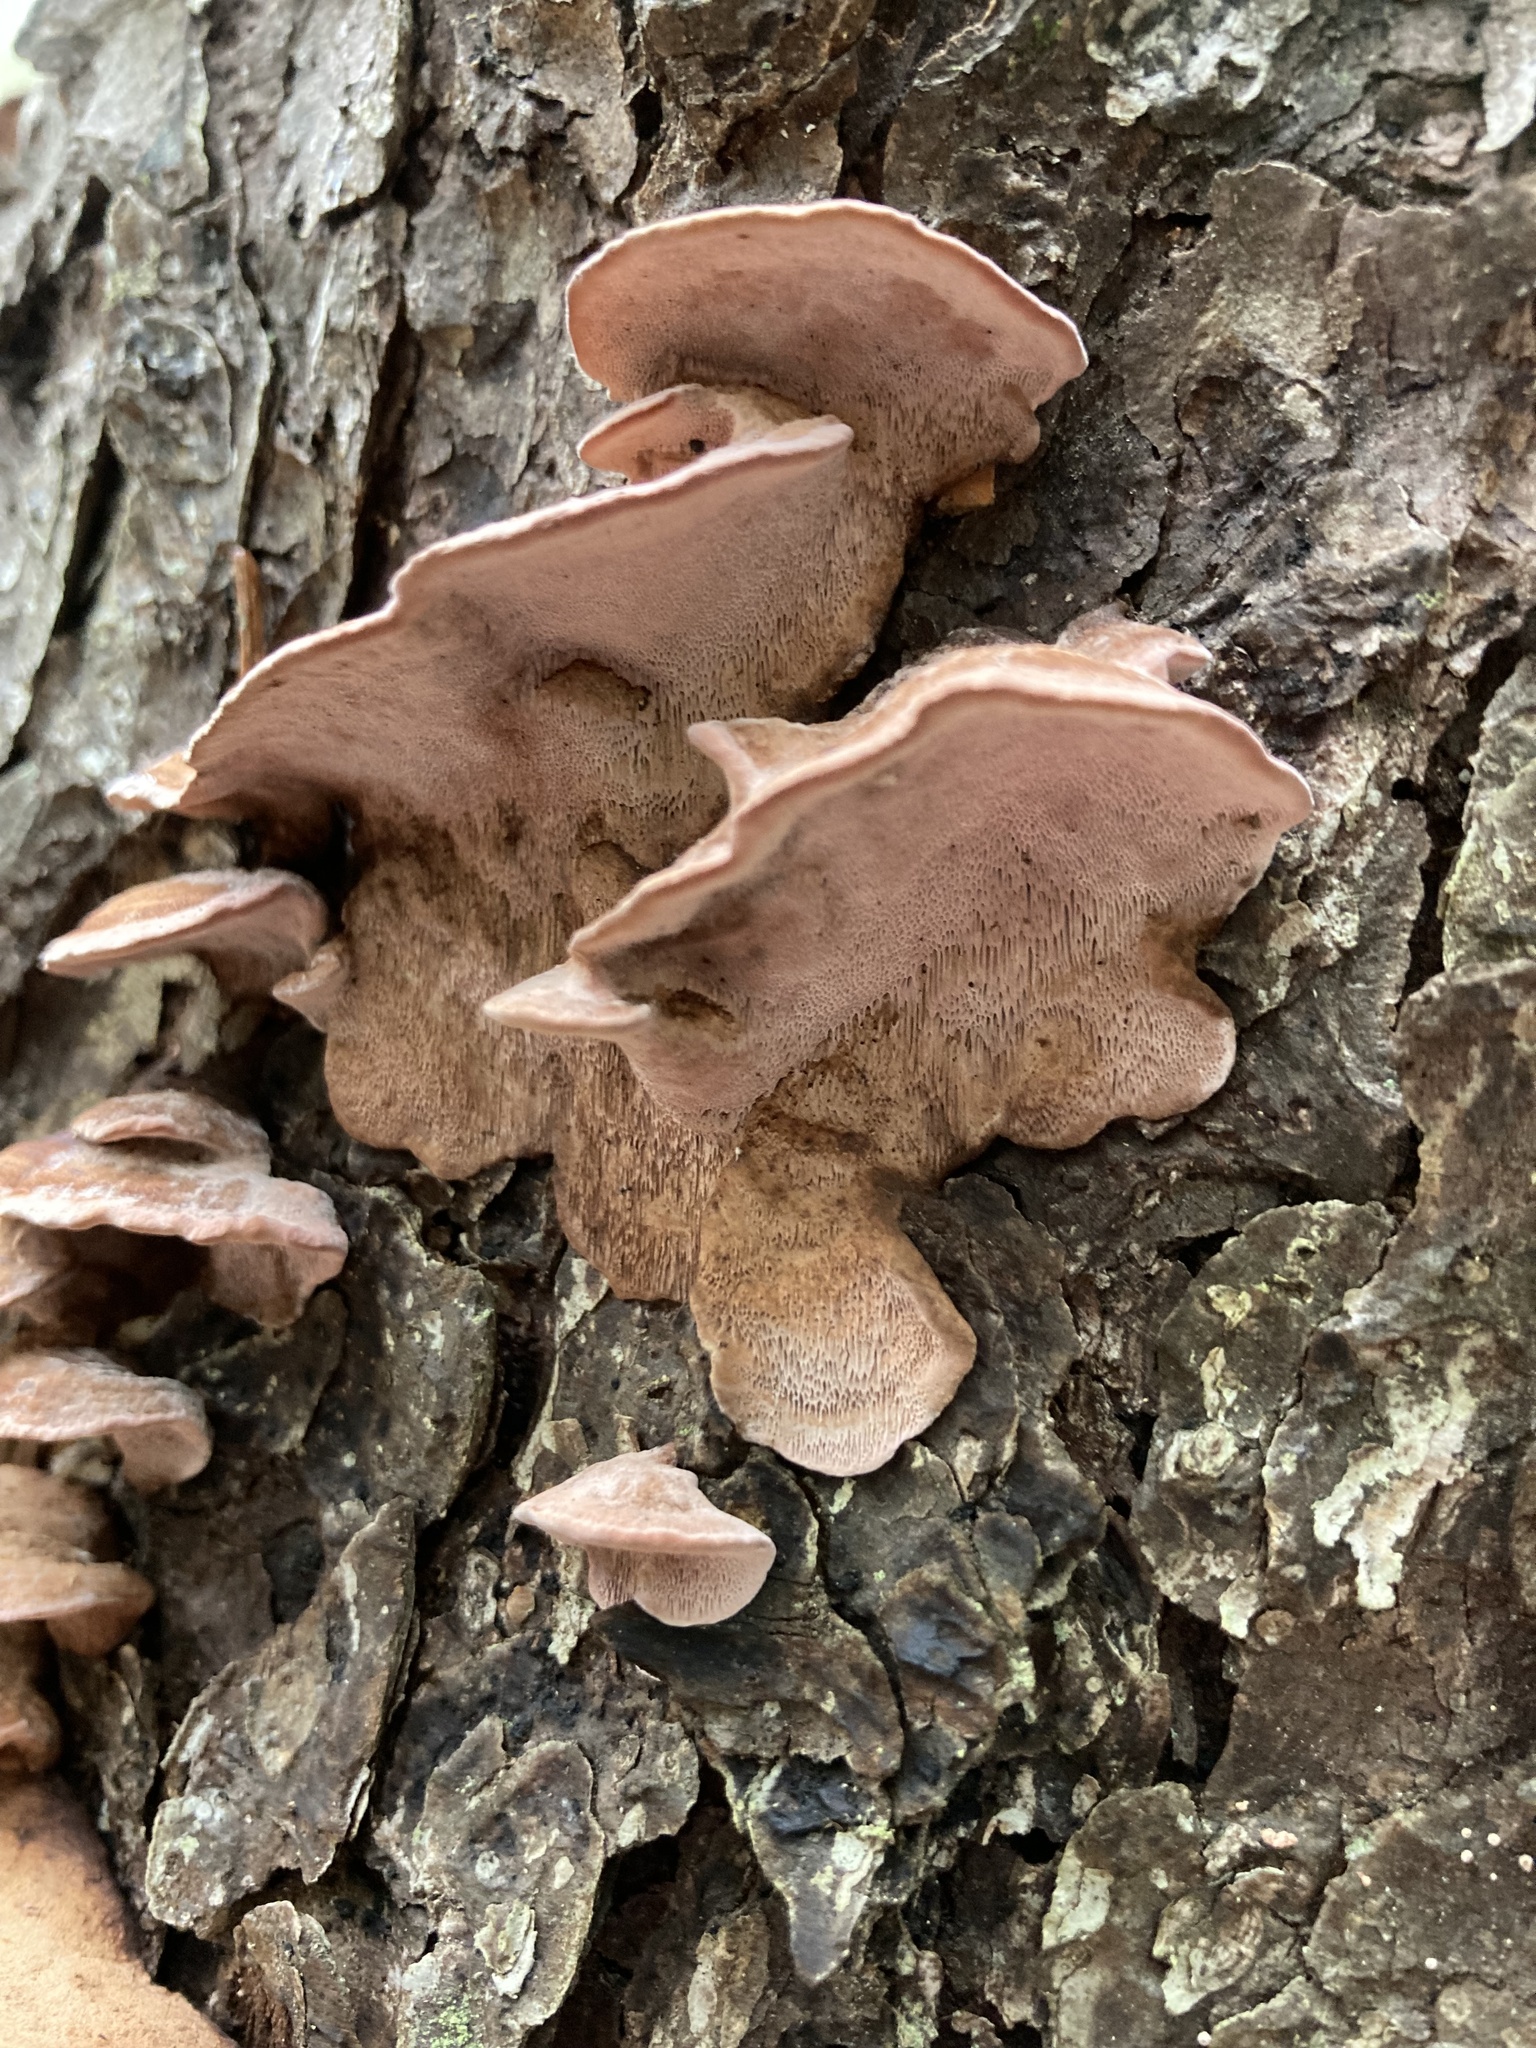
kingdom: Fungi
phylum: Basidiomycota
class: Agaricomycetes
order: Polyporales
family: Fomitopsidaceae
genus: Rhodofomes
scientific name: Rhodofomes cajanderi
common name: Rosy conk
